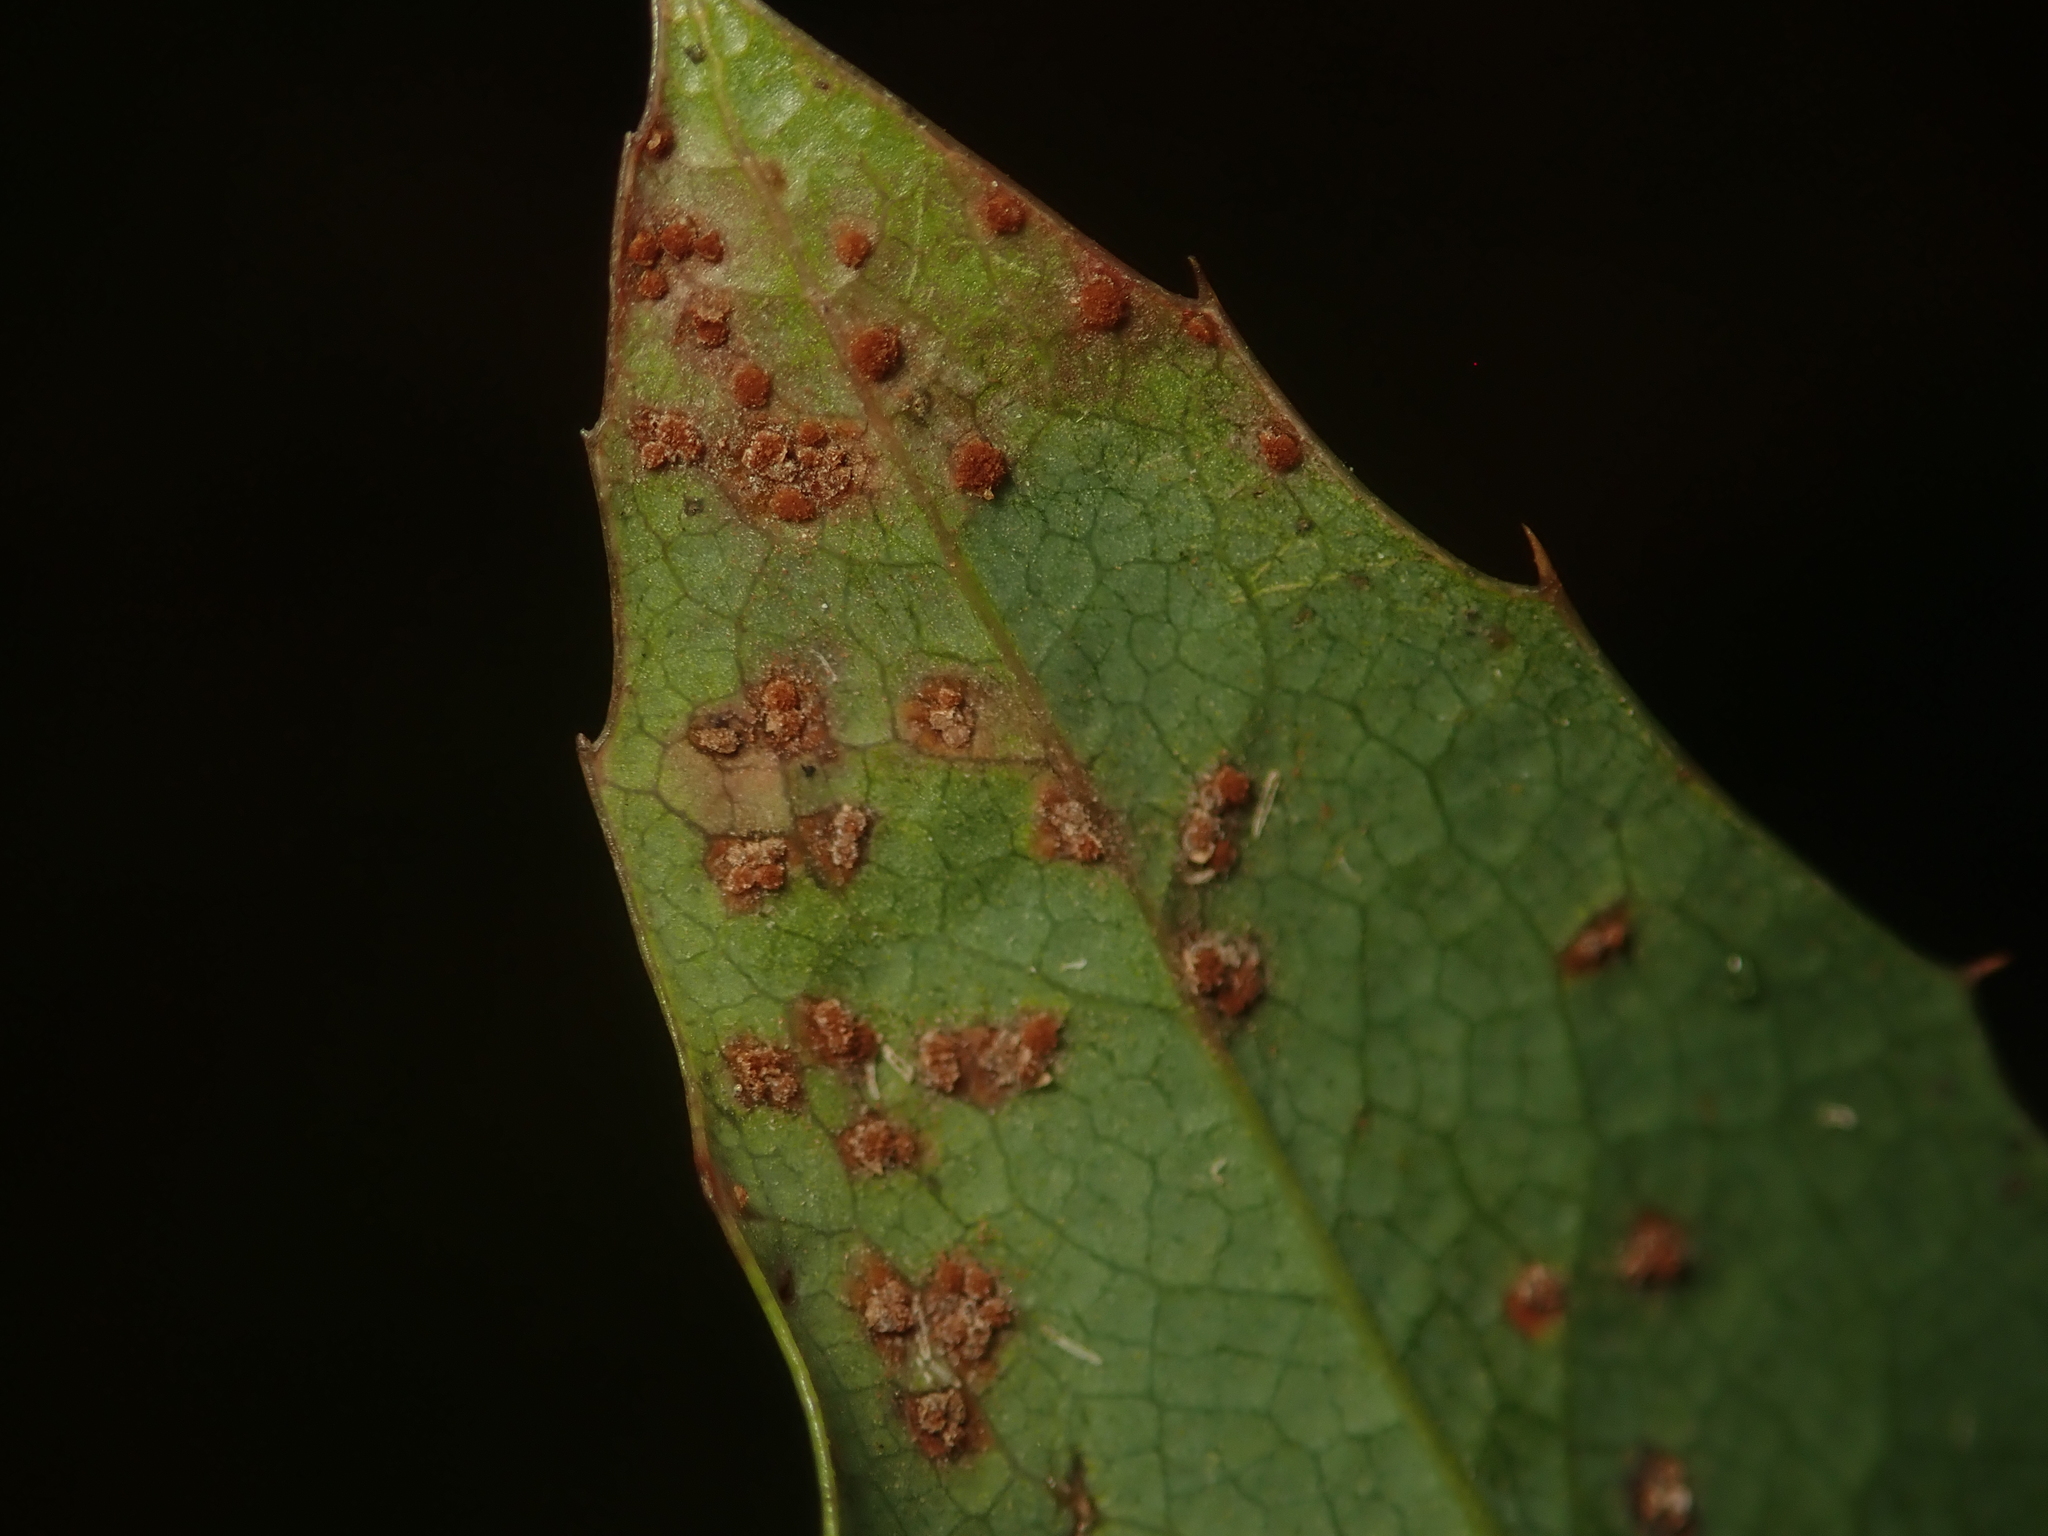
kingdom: Fungi
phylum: Basidiomycota
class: Pucciniomycetes
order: Pucciniales
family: Pucciniaceae
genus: Cumminsiella
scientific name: Cumminsiella mirabilissima
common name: Mahonia rust
